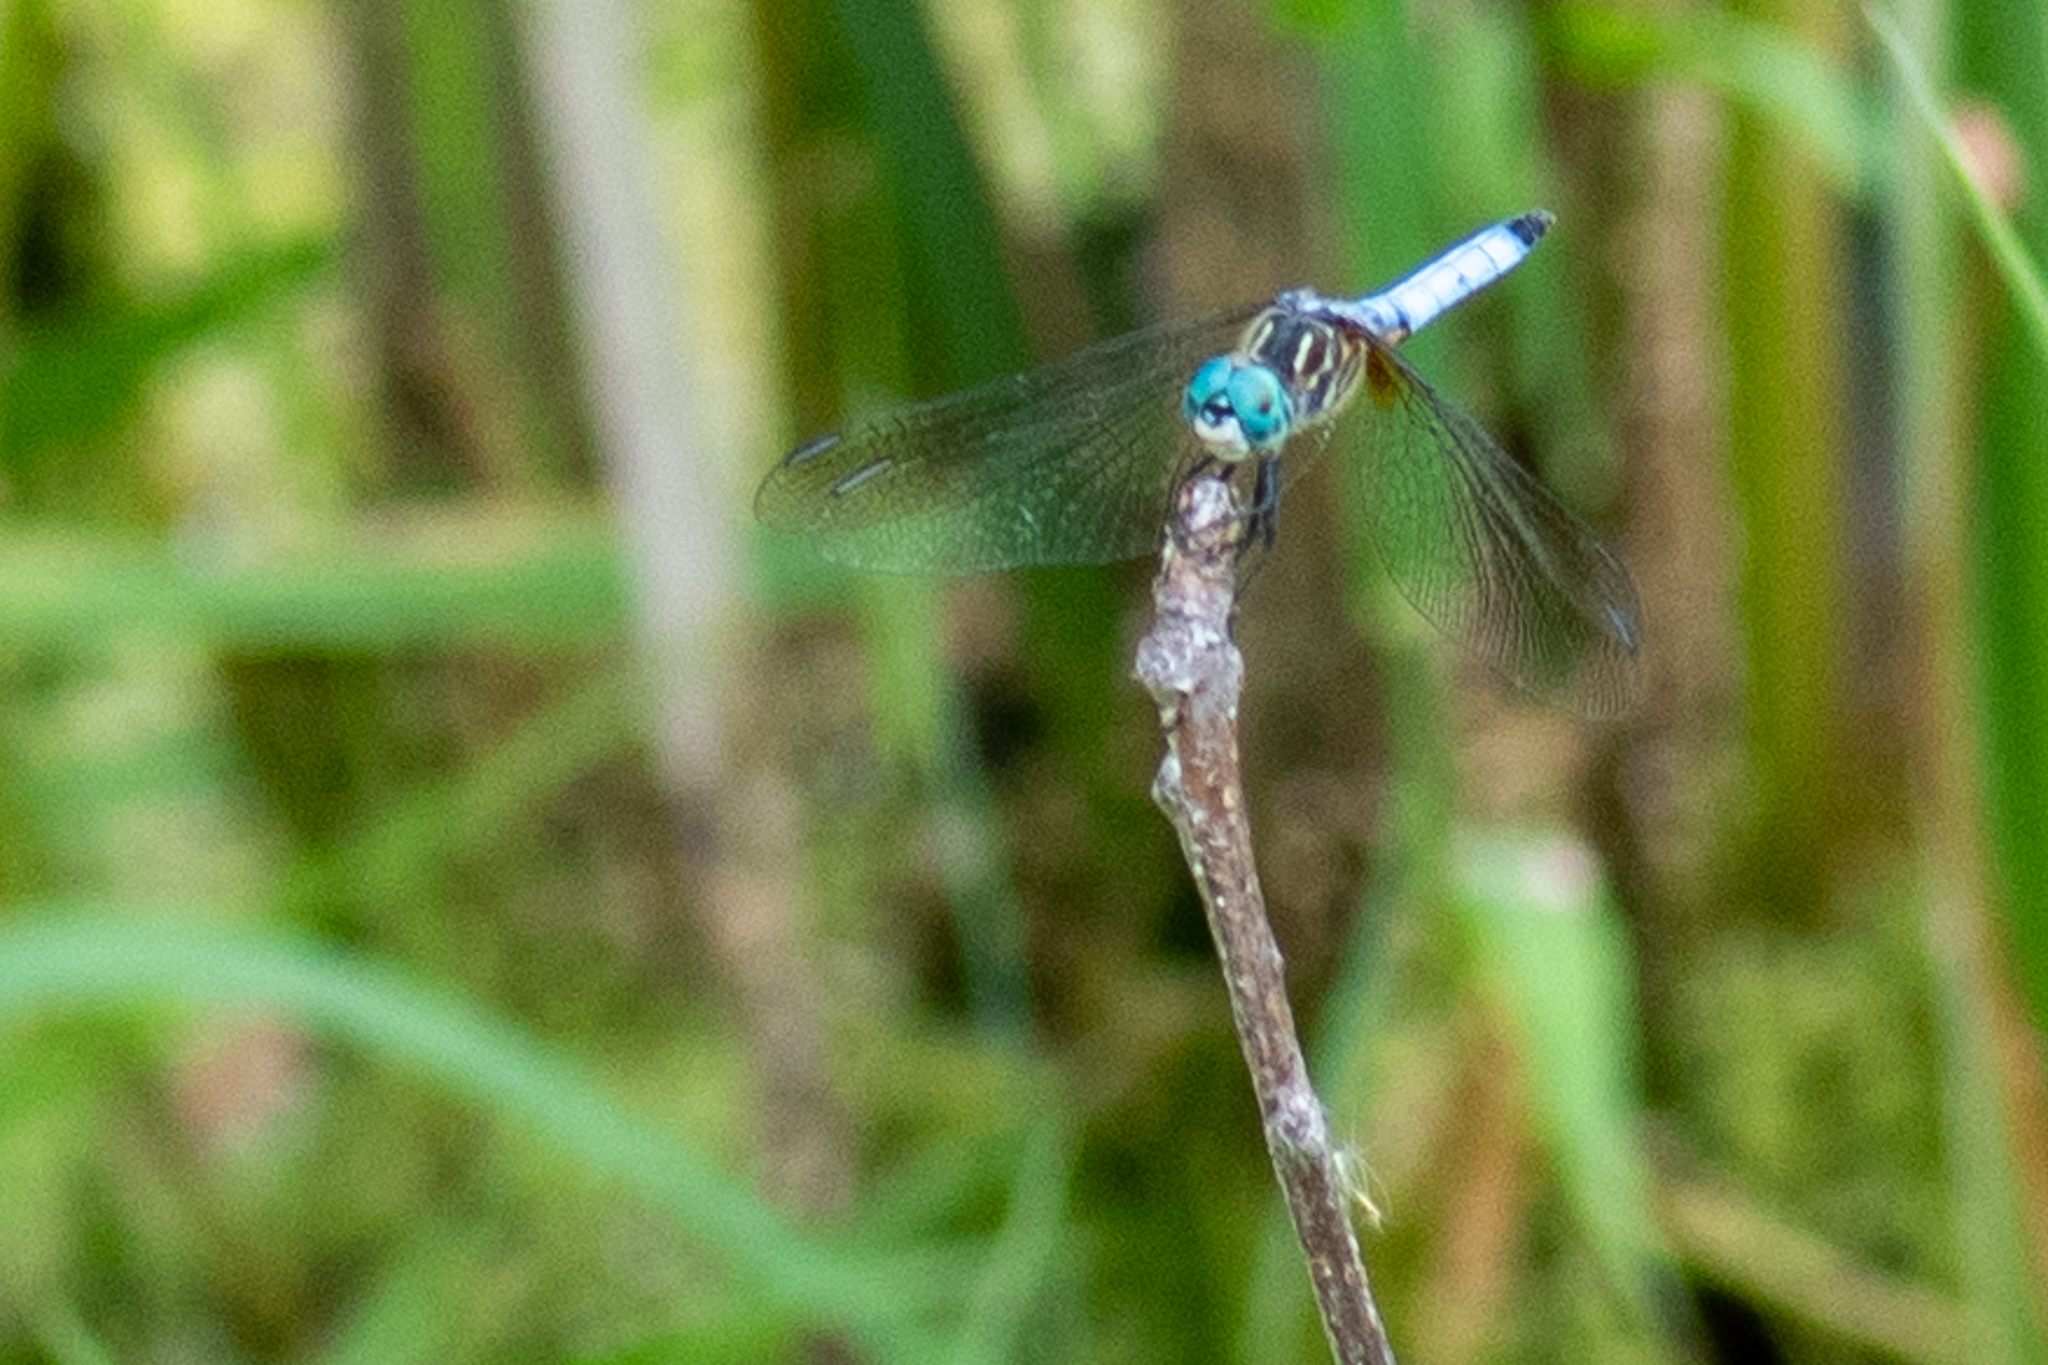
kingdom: Animalia
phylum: Arthropoda
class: Insecta
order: Odonata
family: Libellulidae
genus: Pachydiplax
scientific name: Pachydiplax longipennis
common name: Blue dasher
